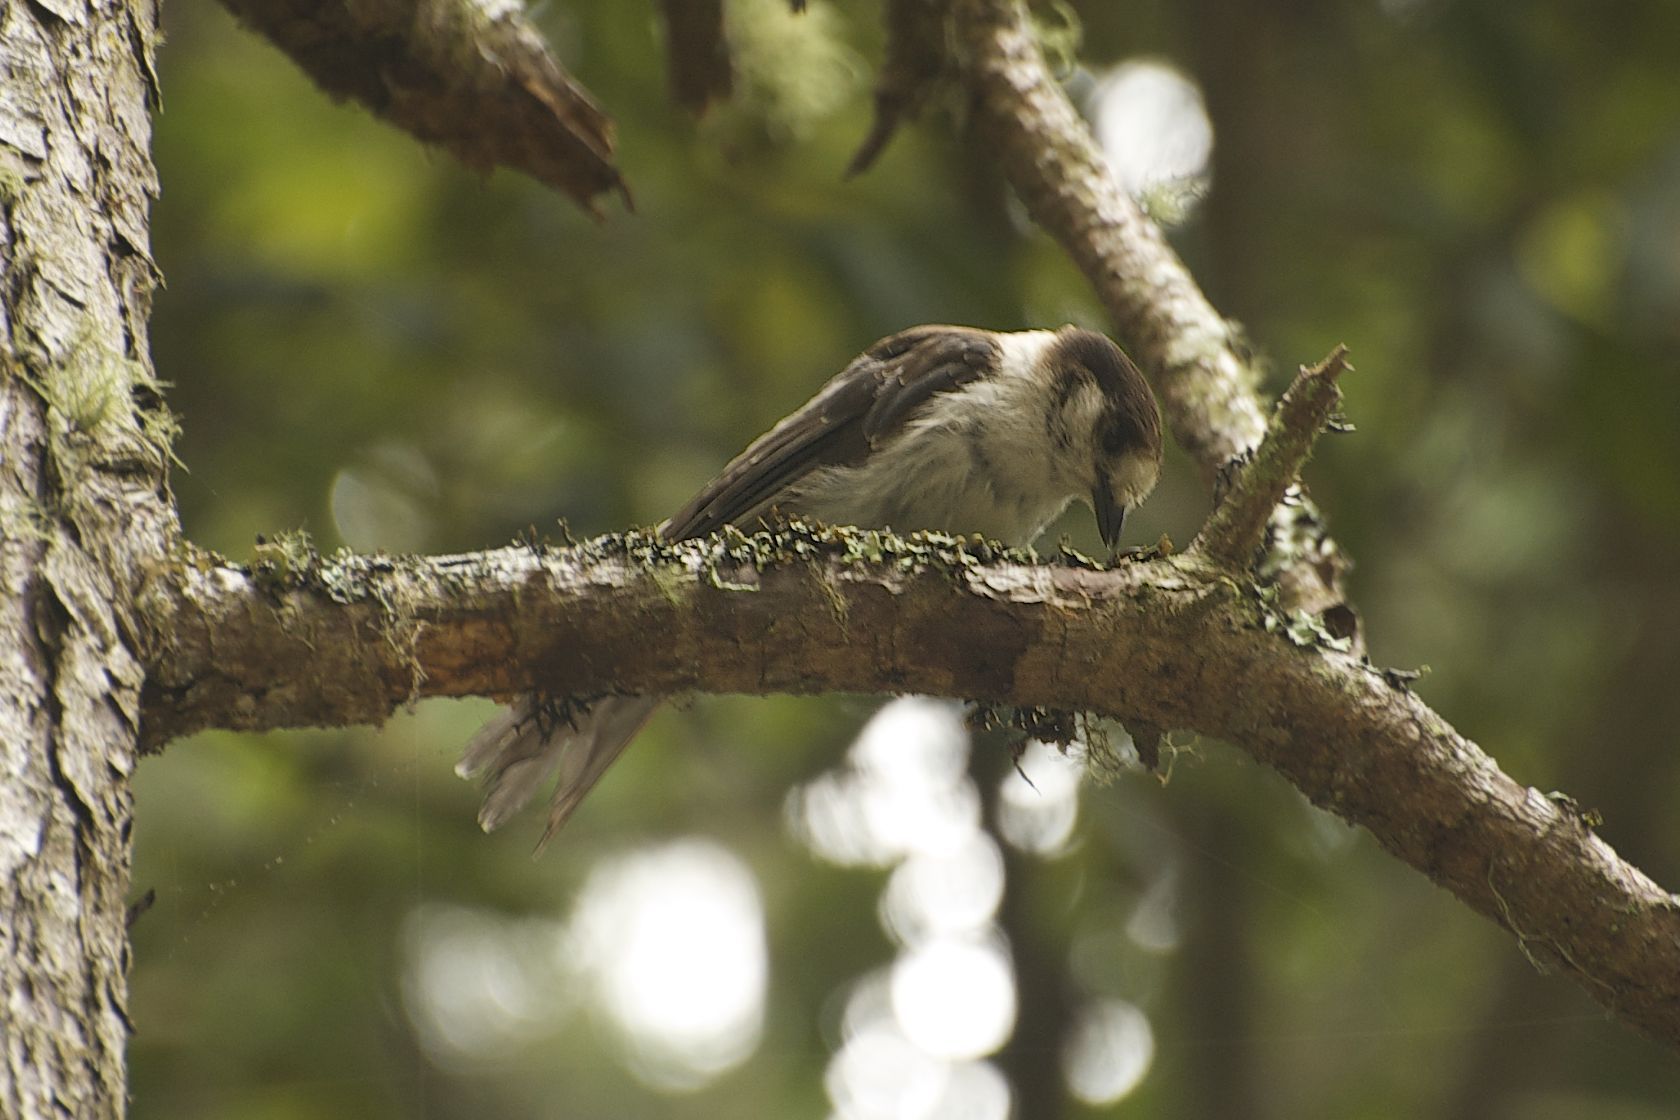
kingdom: Animalia
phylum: Chordata
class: Aves
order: Passeriformes
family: Corvidae
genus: Perisoreus
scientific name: Perisoreus canadensis
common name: Gray jay
